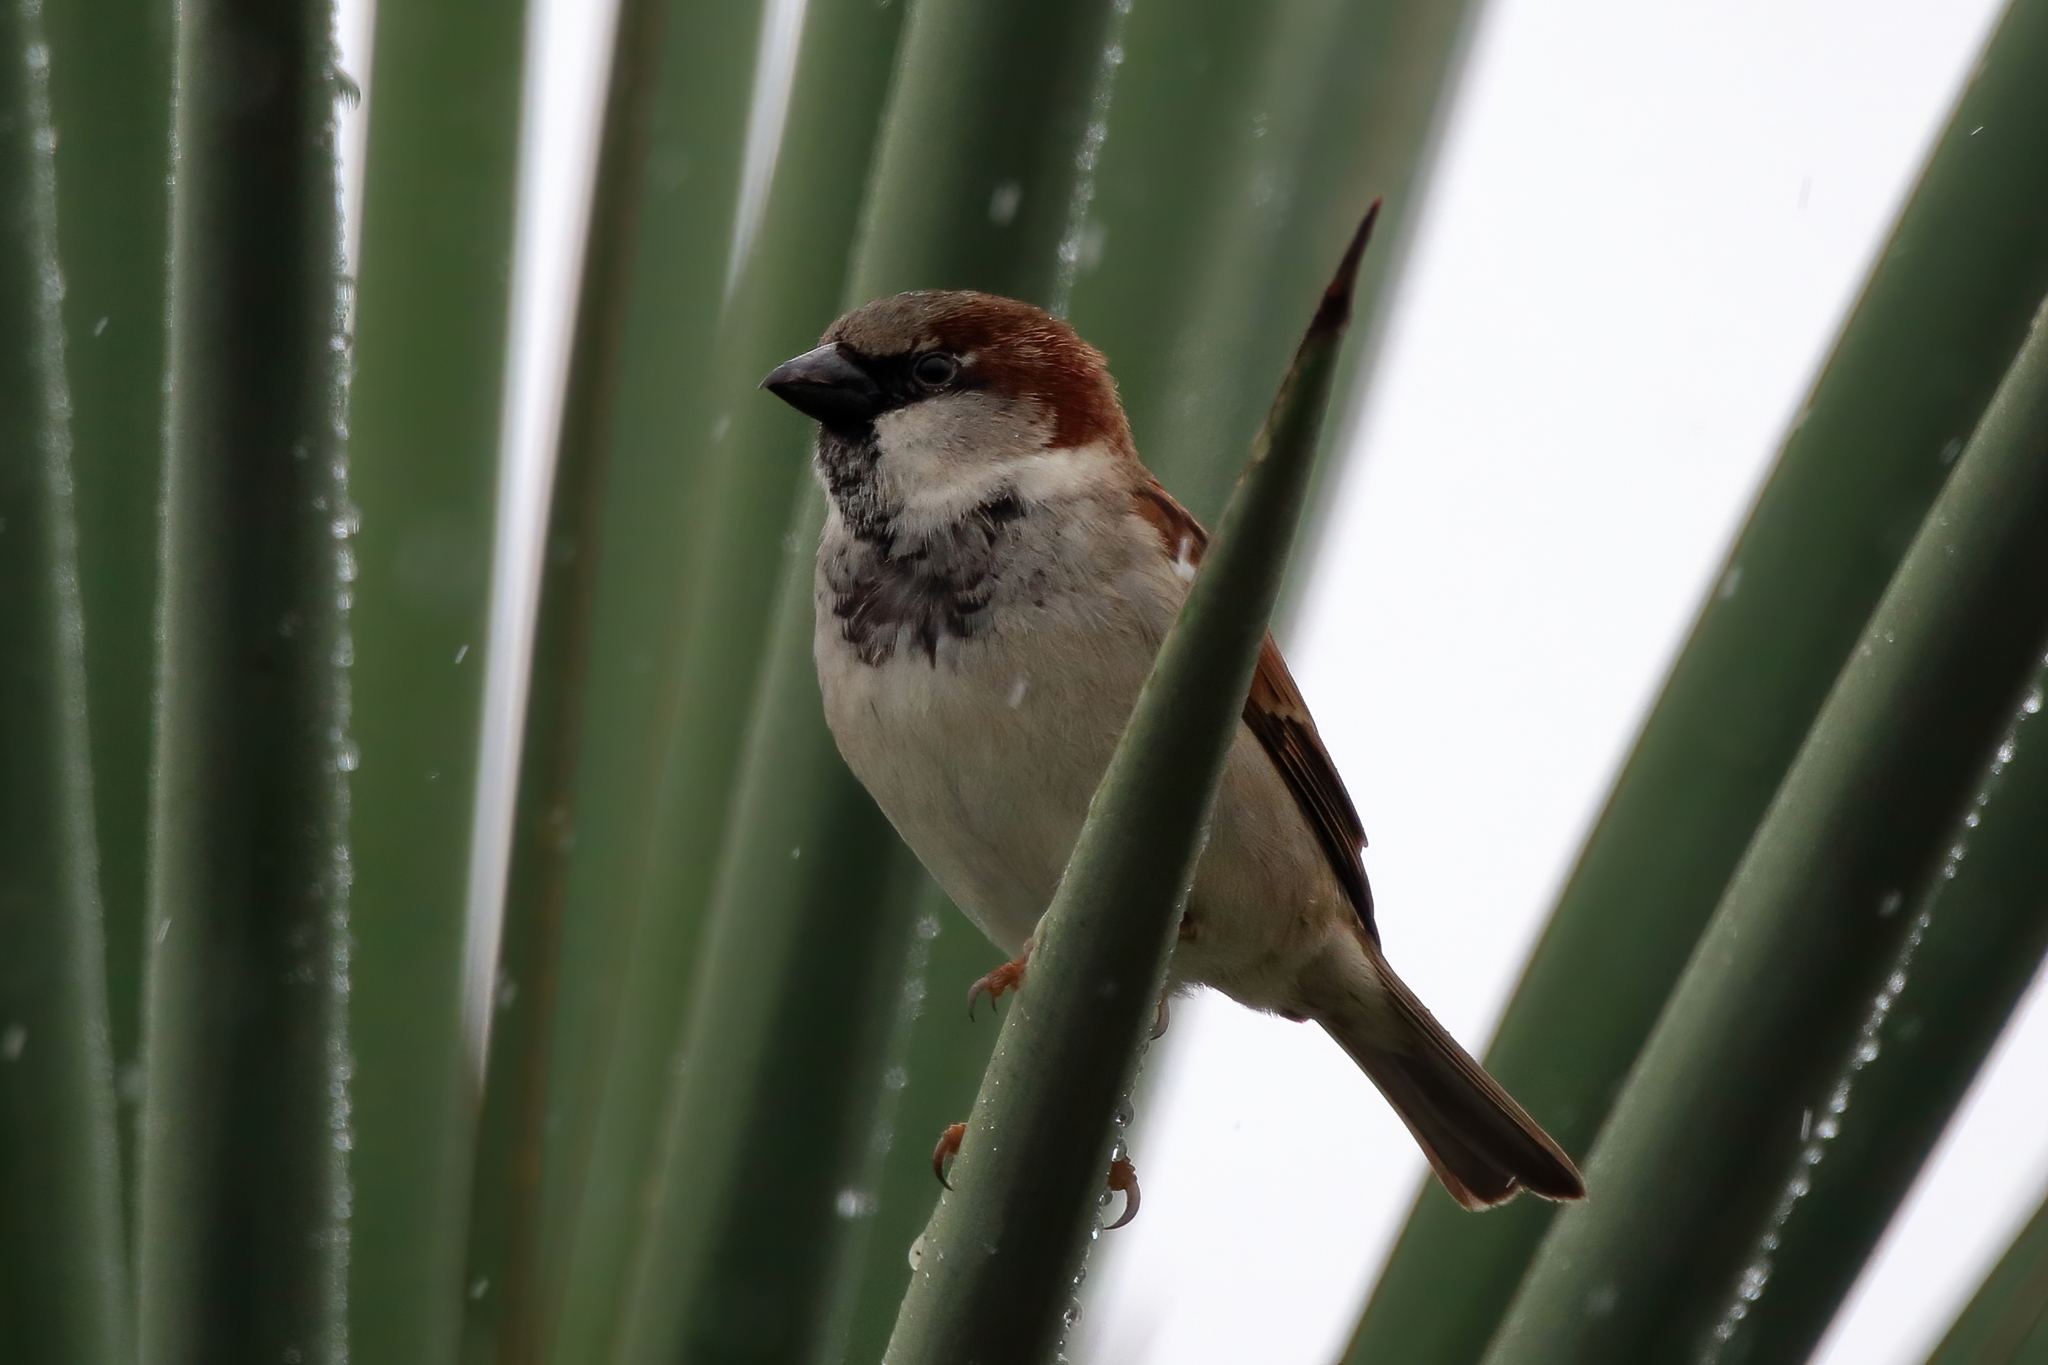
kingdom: Animalia
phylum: Chordata
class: Aves
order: Passeriformes
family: Passeridae
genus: Passer
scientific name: Passer domesticus
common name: House sparrow
